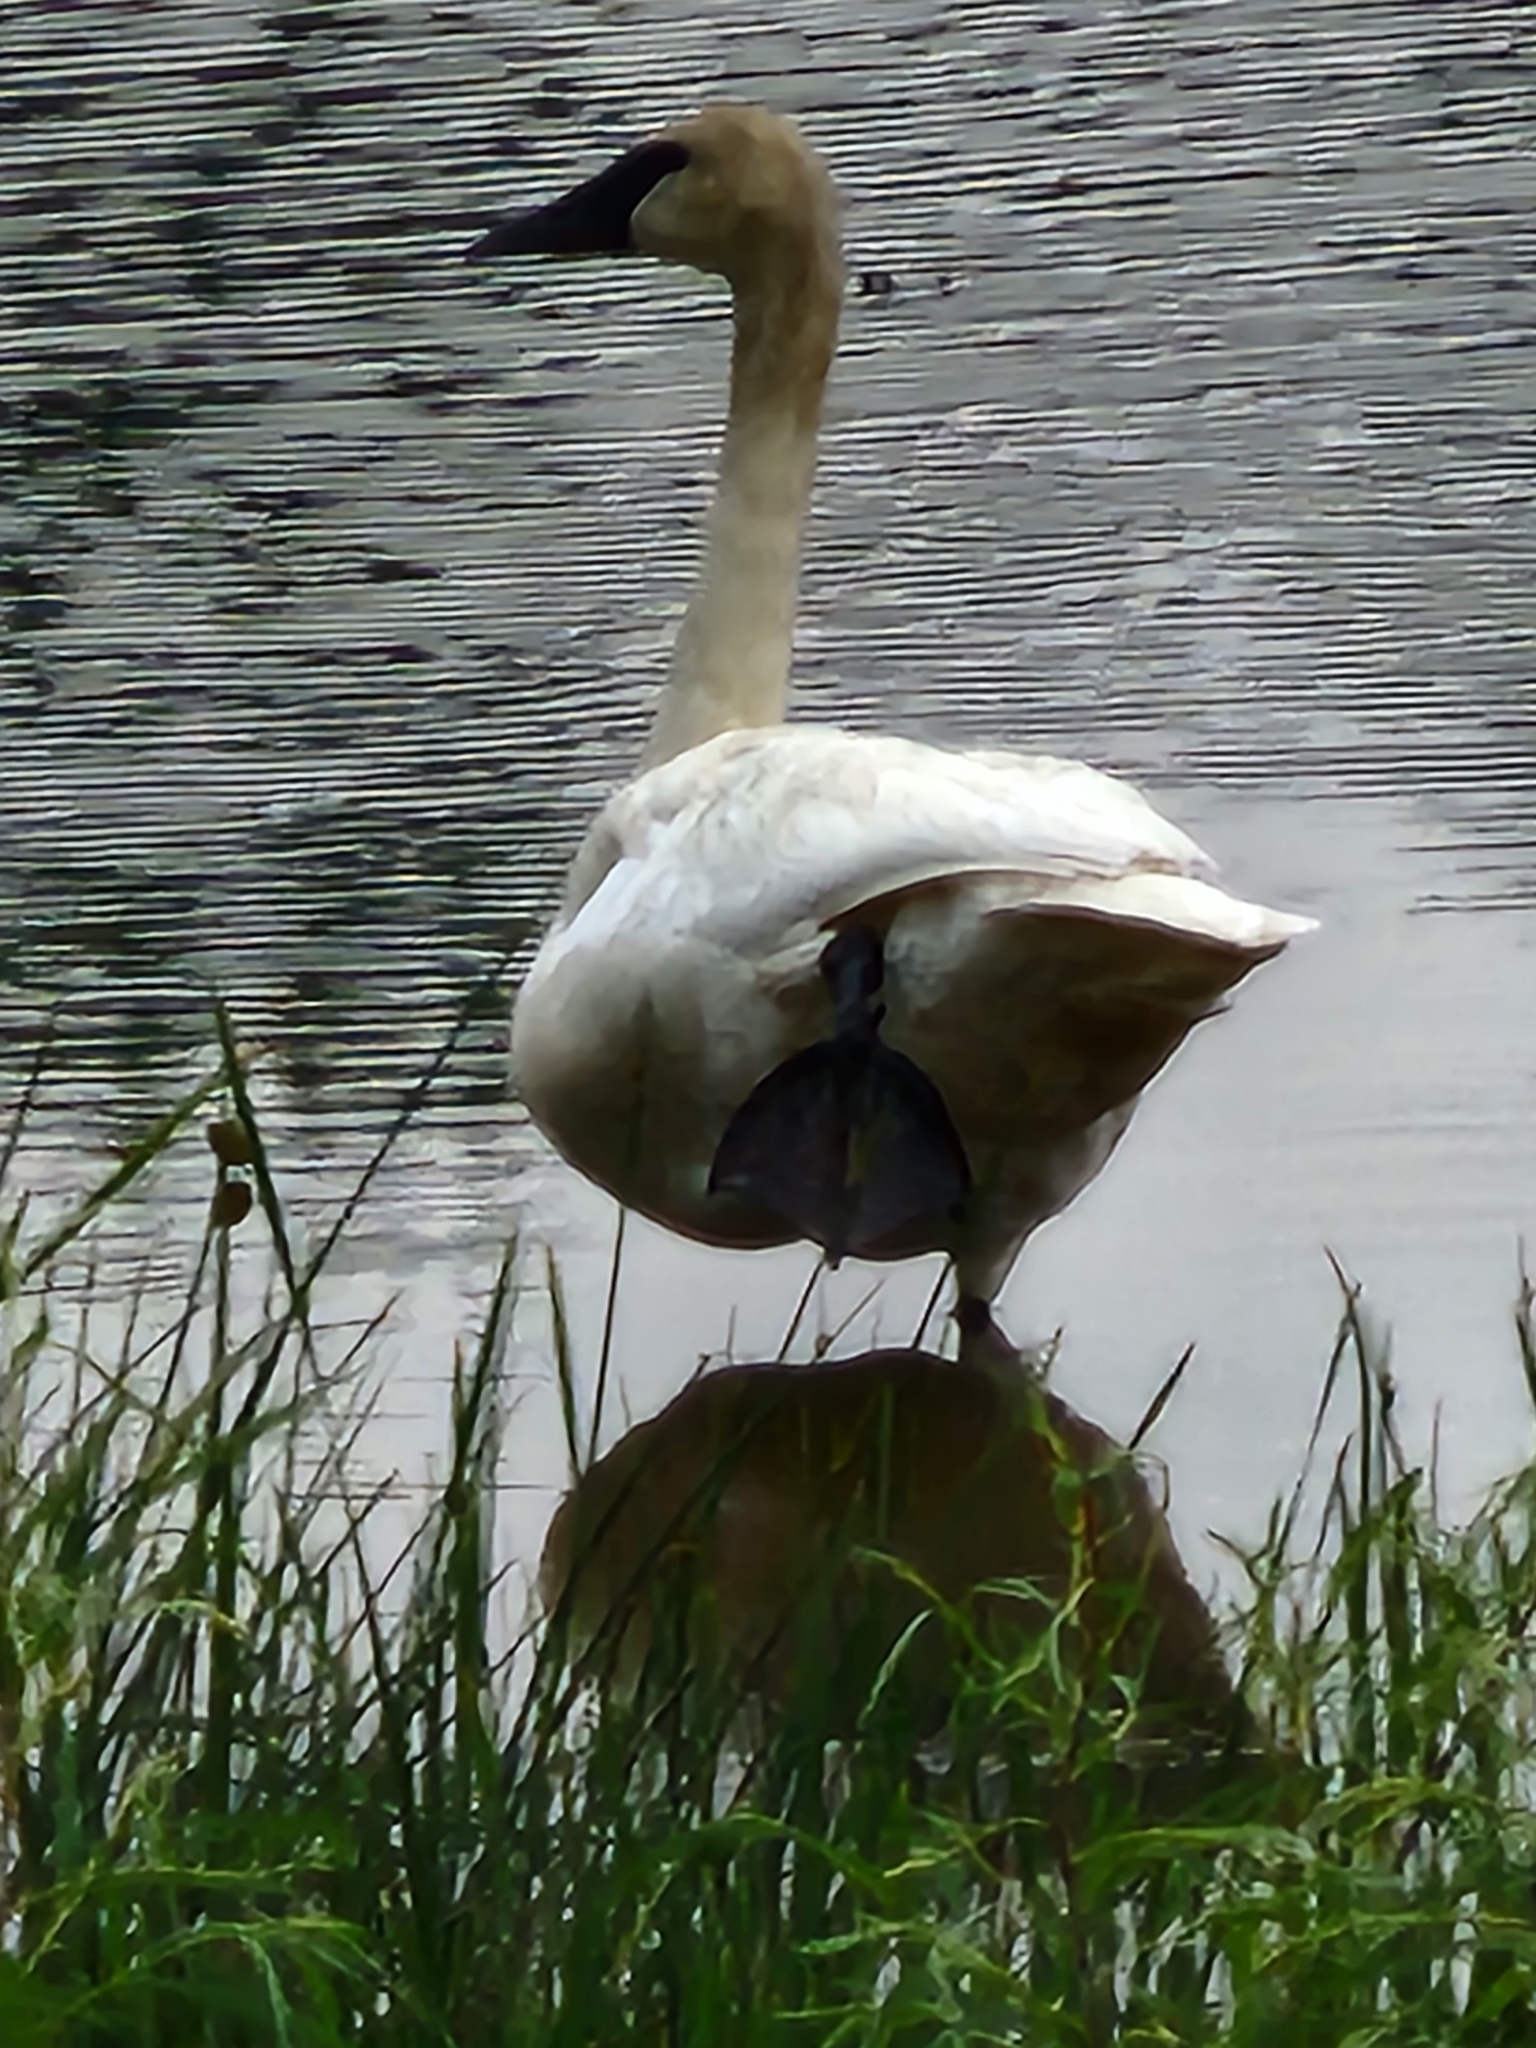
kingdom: Animalia
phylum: Chordata
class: Aves
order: Anseriformes
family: Anatidae
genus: Cygnus
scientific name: Cygnus buccinator
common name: Trumpeter swan
